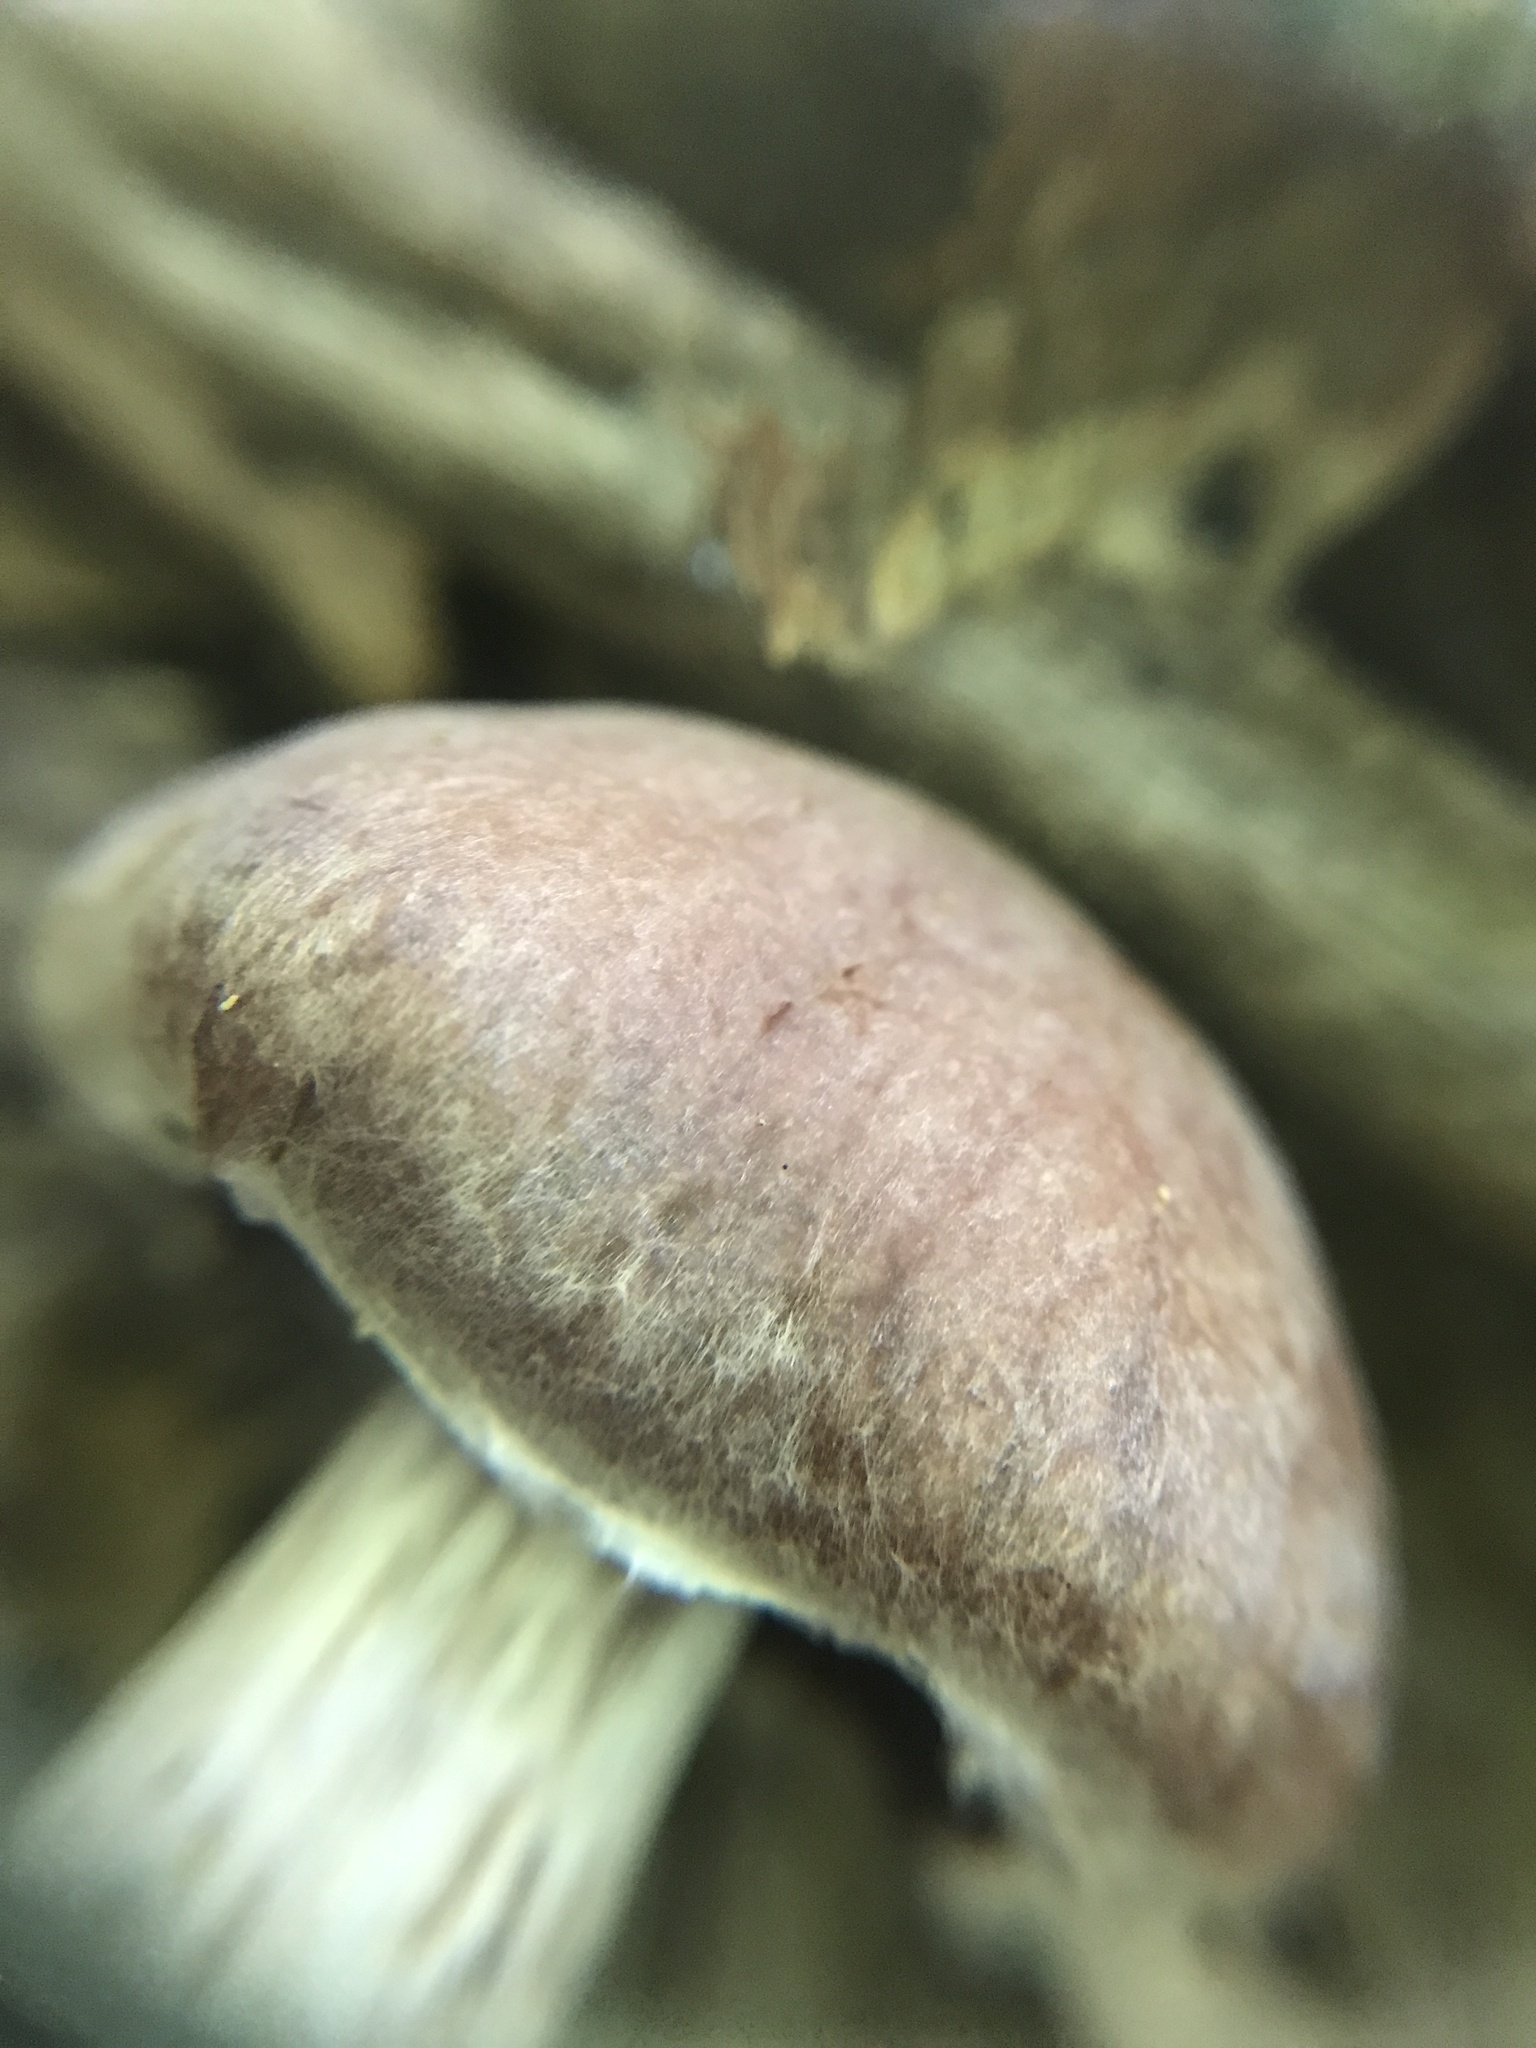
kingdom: Fungi
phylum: Basidiomycota
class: Agaricomycetes
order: Agaricales
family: Cortinariaceae
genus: Cortinarius
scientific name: Cortinarius mattiae
